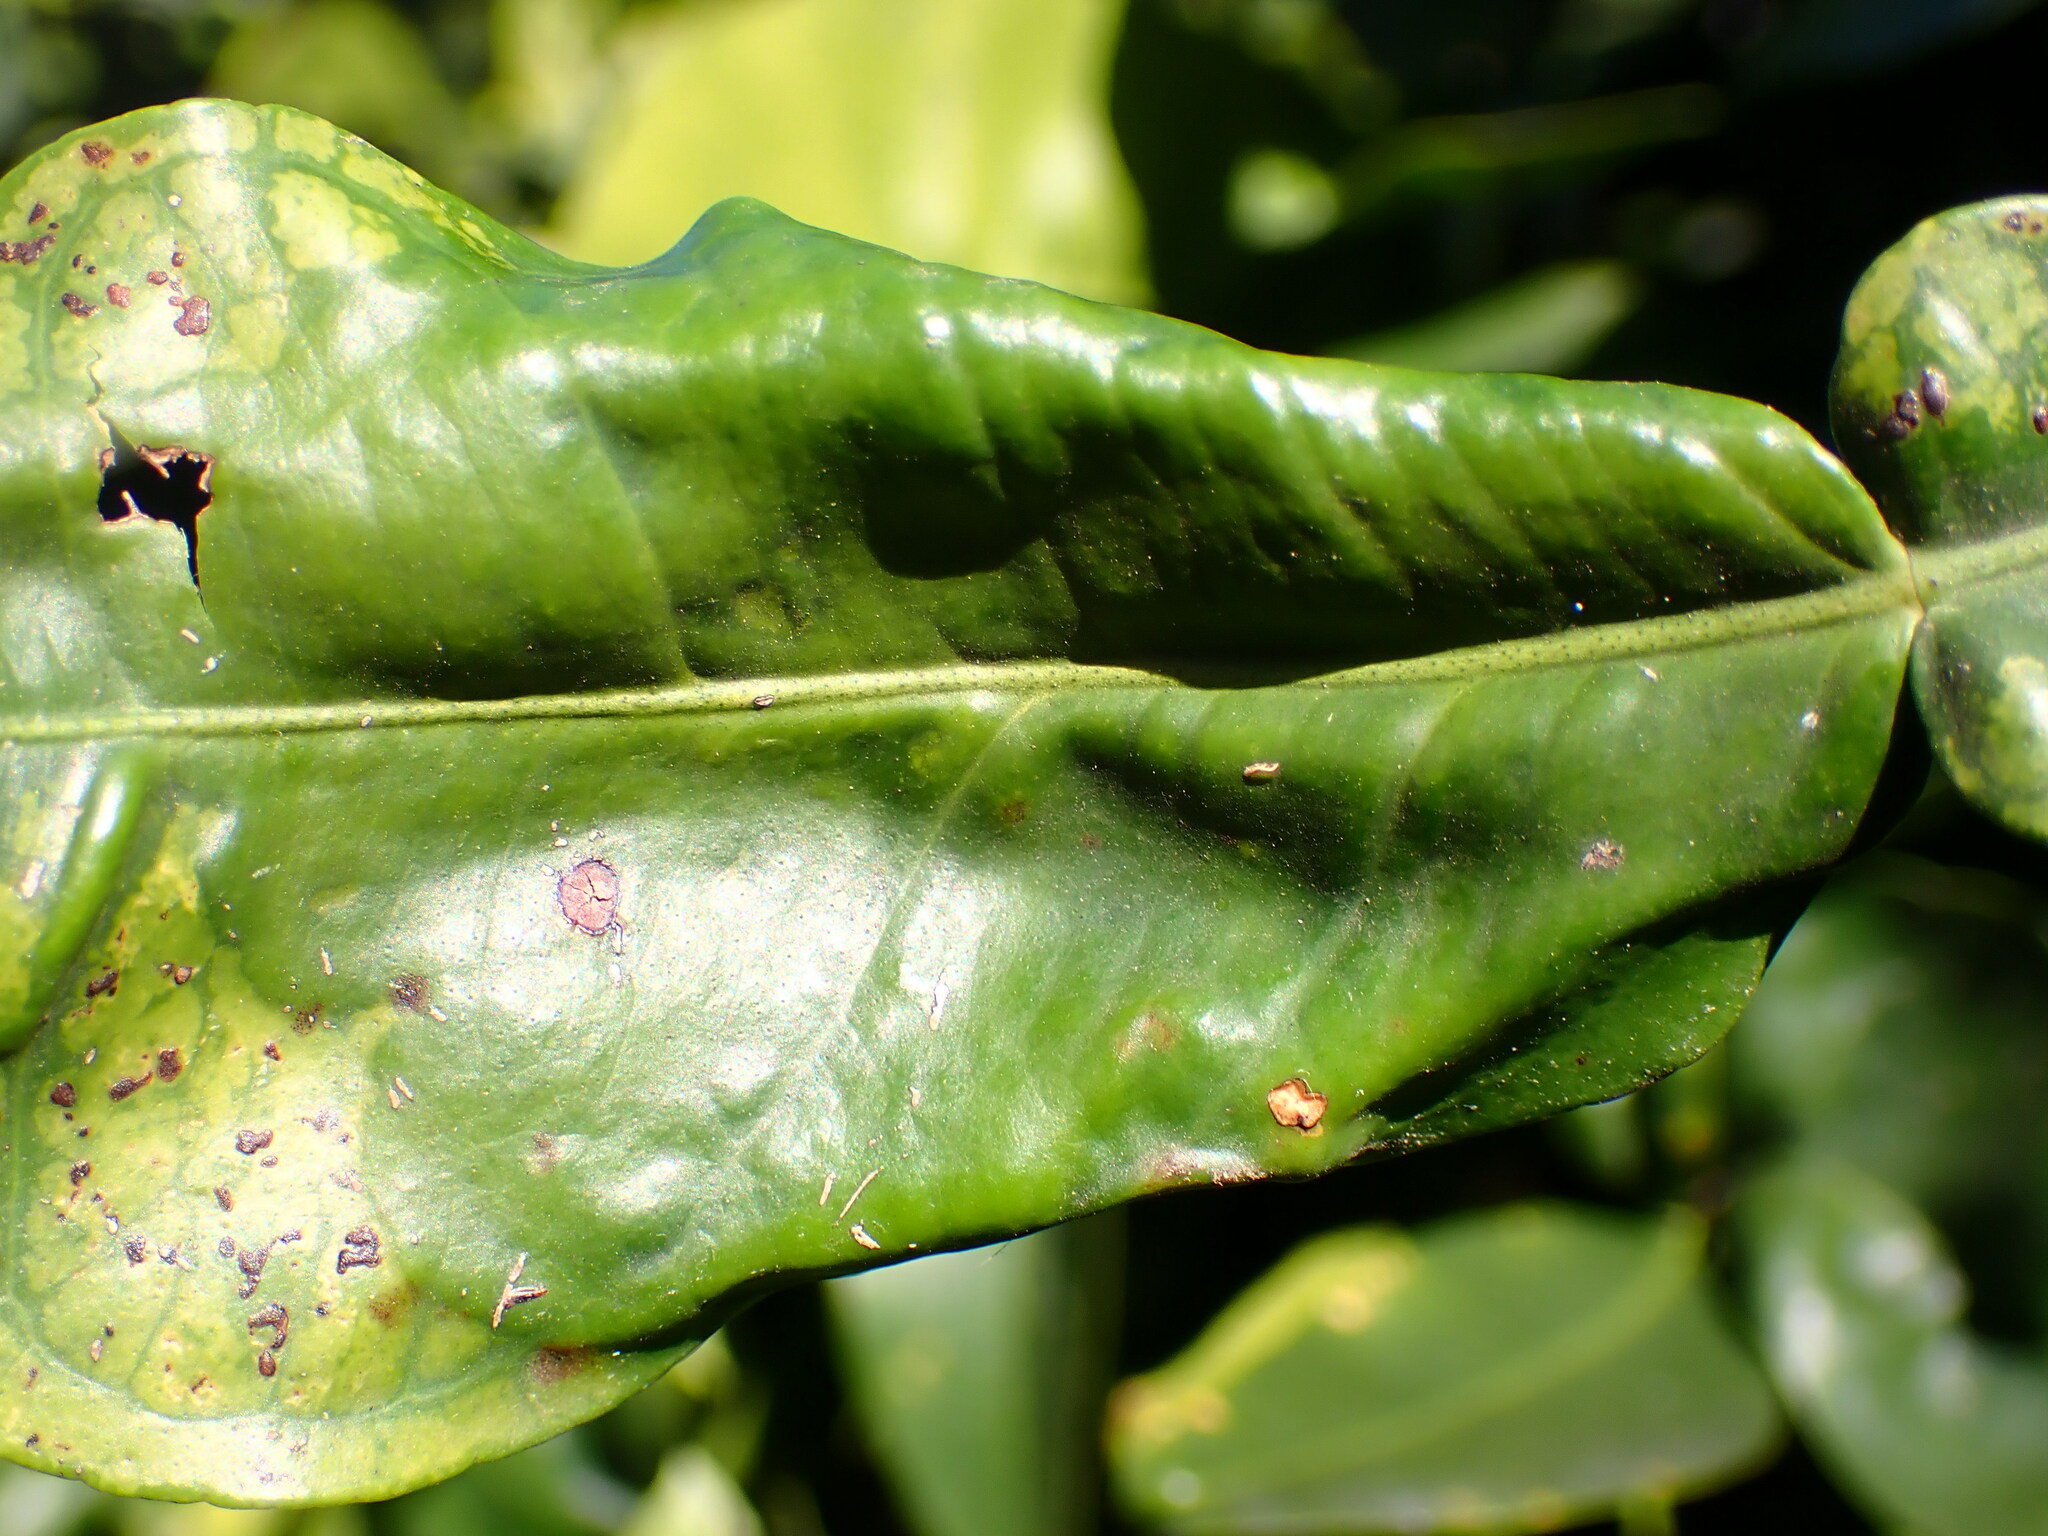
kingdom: Animalia
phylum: Arthropoda
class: Insecta
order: Lepidoptera
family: Gracillariidae
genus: Phyllocnistis
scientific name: Phyllocnistis citrella
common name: Citrus leafminer
